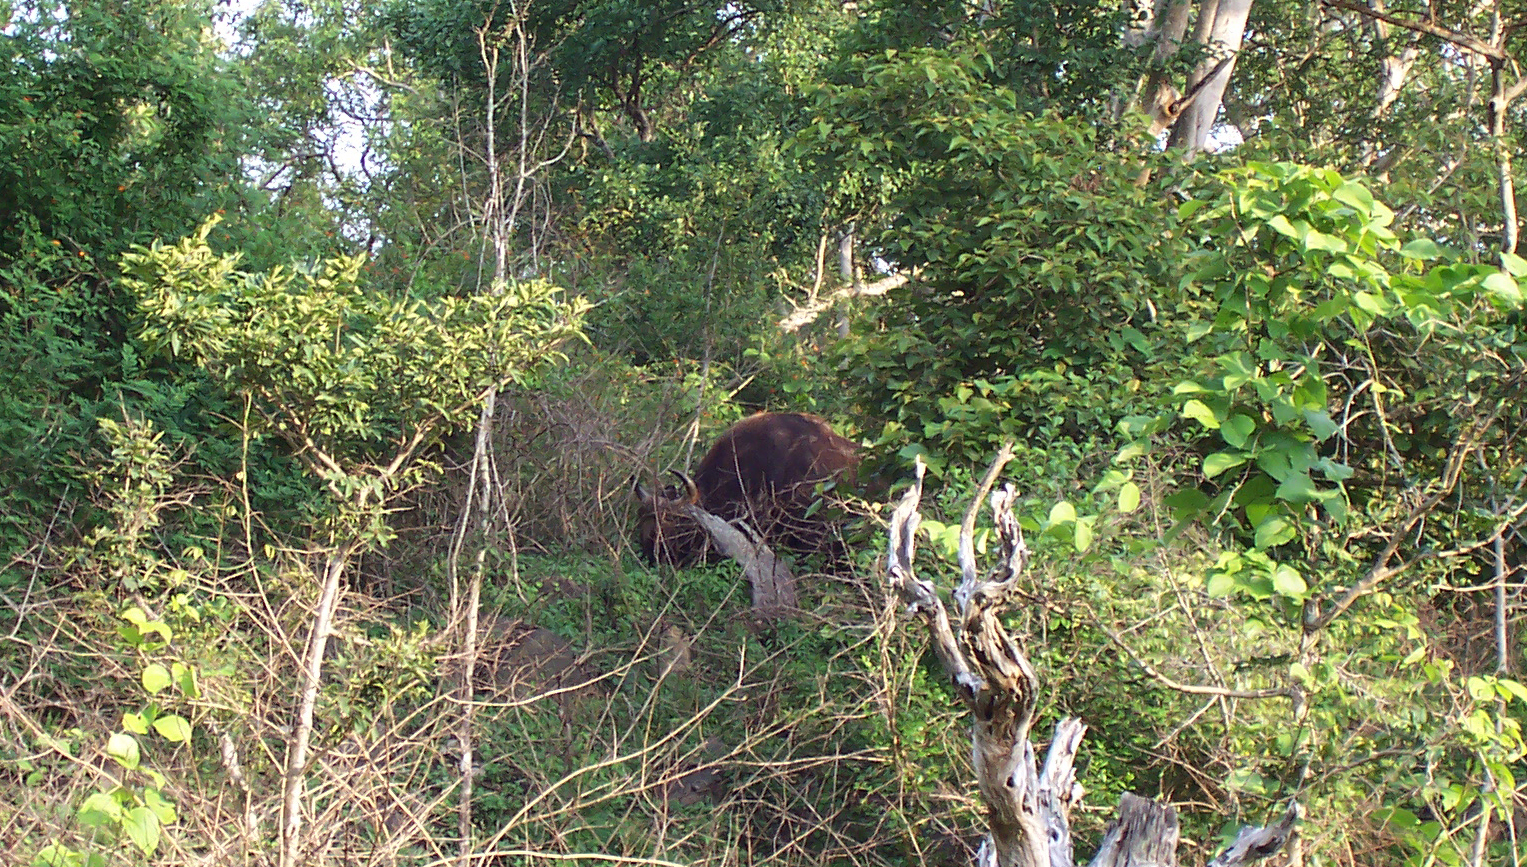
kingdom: Animalia
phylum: Chordata
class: Mammalia
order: Artiodactyla
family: Bovidae
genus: Bos
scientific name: Bos frontalis
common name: Gaur
